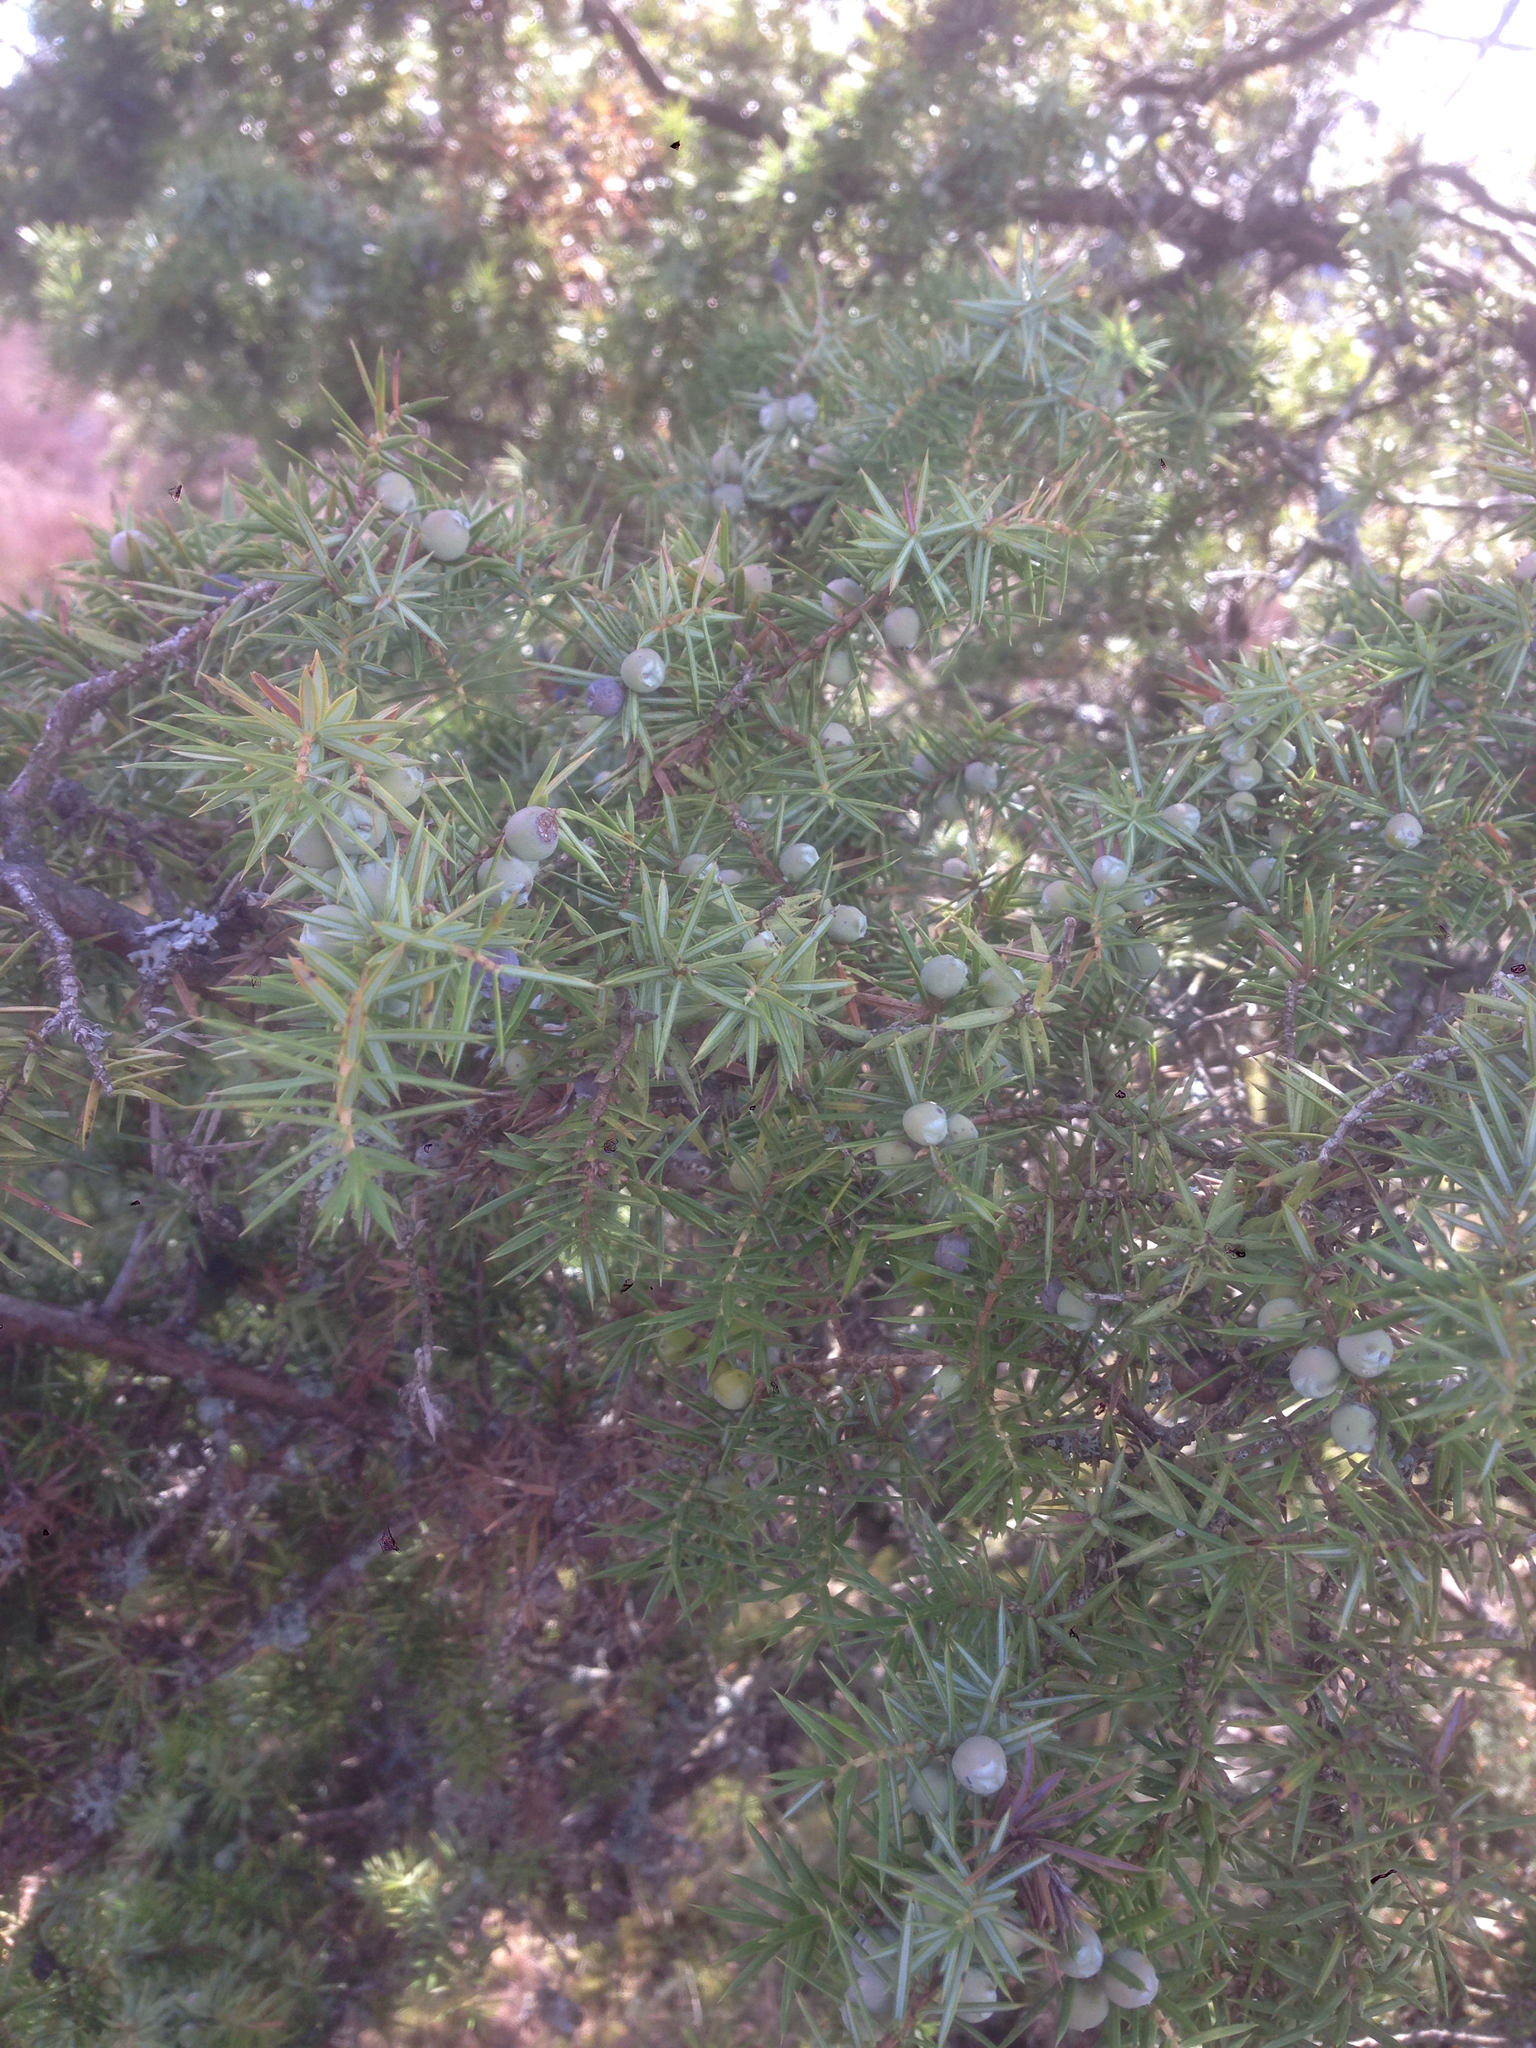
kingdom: Plantae
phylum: Tracheophyta
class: Pinopsida
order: Pinales
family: Cupressaceae
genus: Juniperus
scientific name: Juniperus communis
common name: Common juniper
